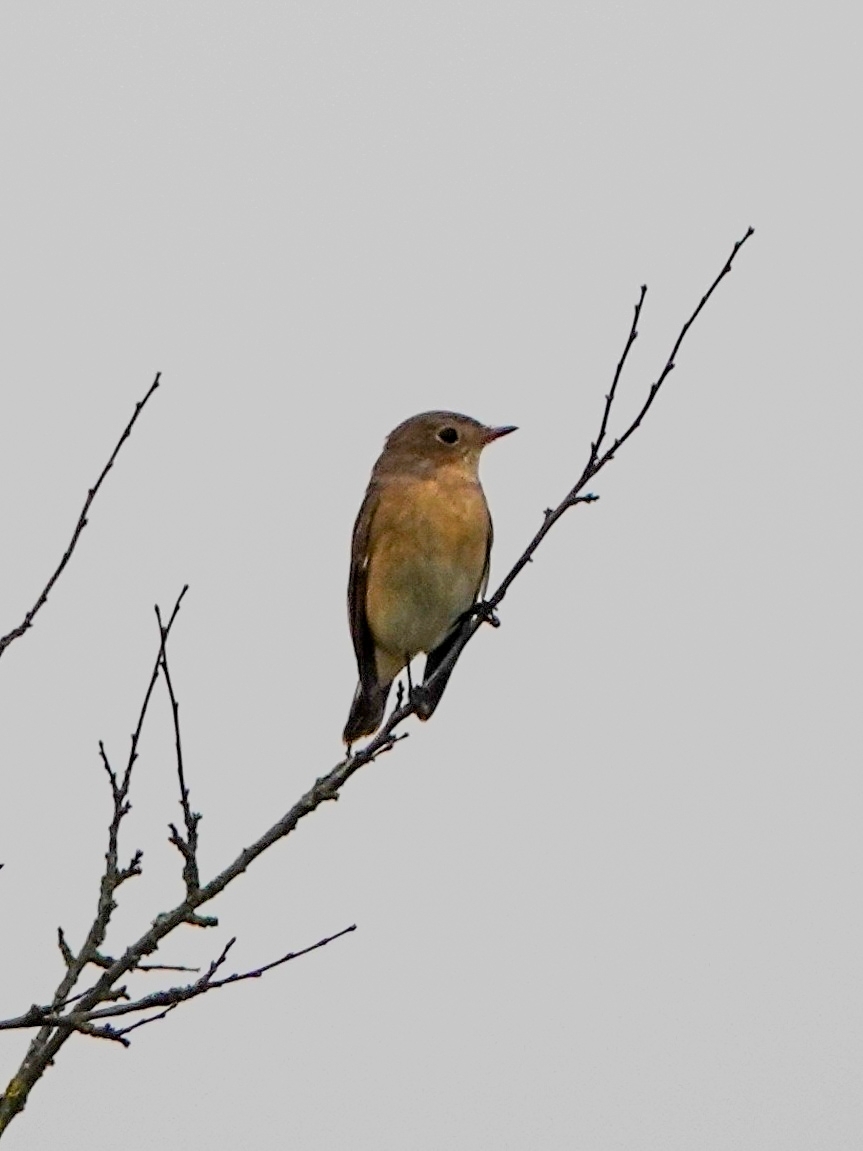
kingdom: Animalia
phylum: Chordata
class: Aves
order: Passeriformes
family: Muscicapidae
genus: Ficedula
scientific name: Ficedula parva
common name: Red-breasted flycatcher
